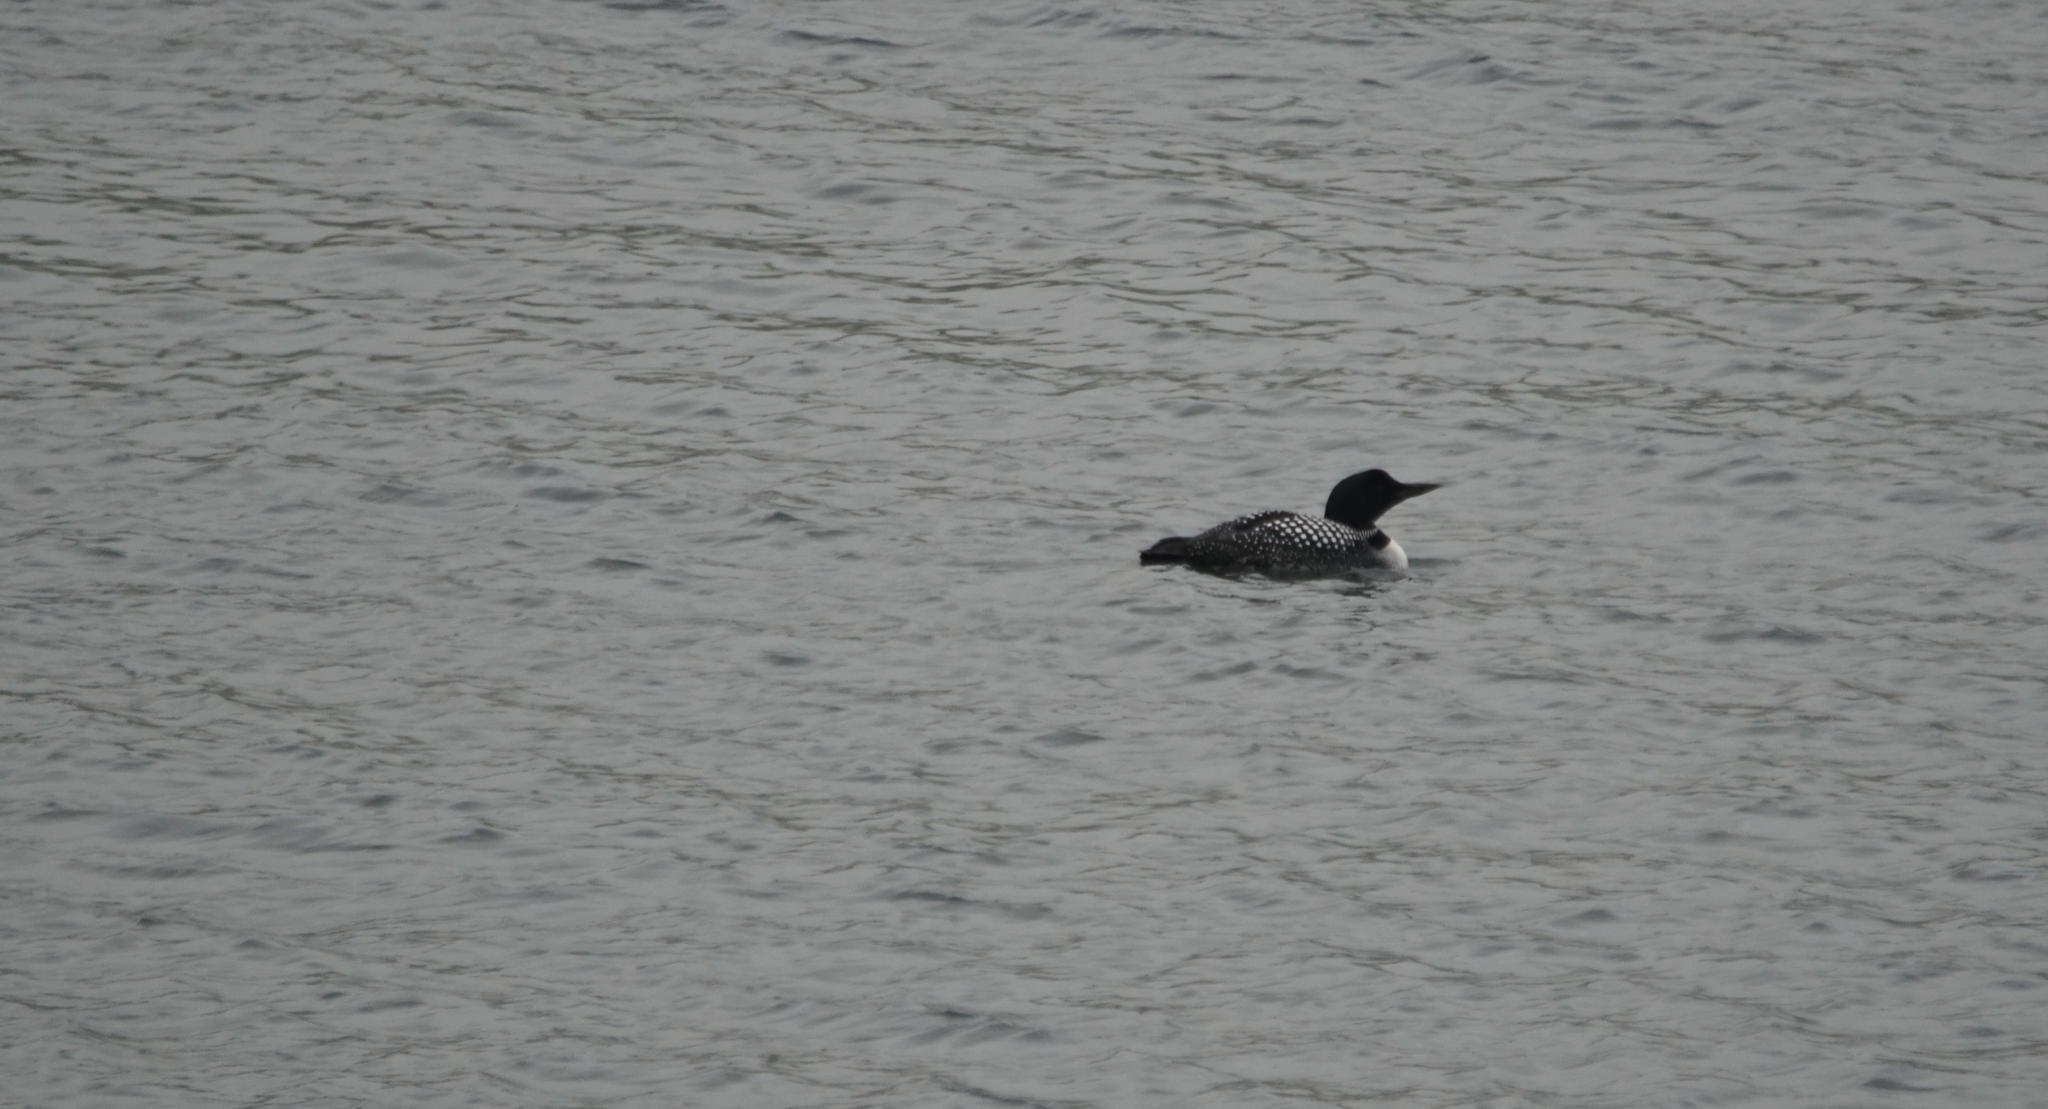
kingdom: Animalia
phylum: Chordata
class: Aves
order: Gaviiformes
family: Gaviidae
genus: Gavia
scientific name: Gavia immer
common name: Common loon
